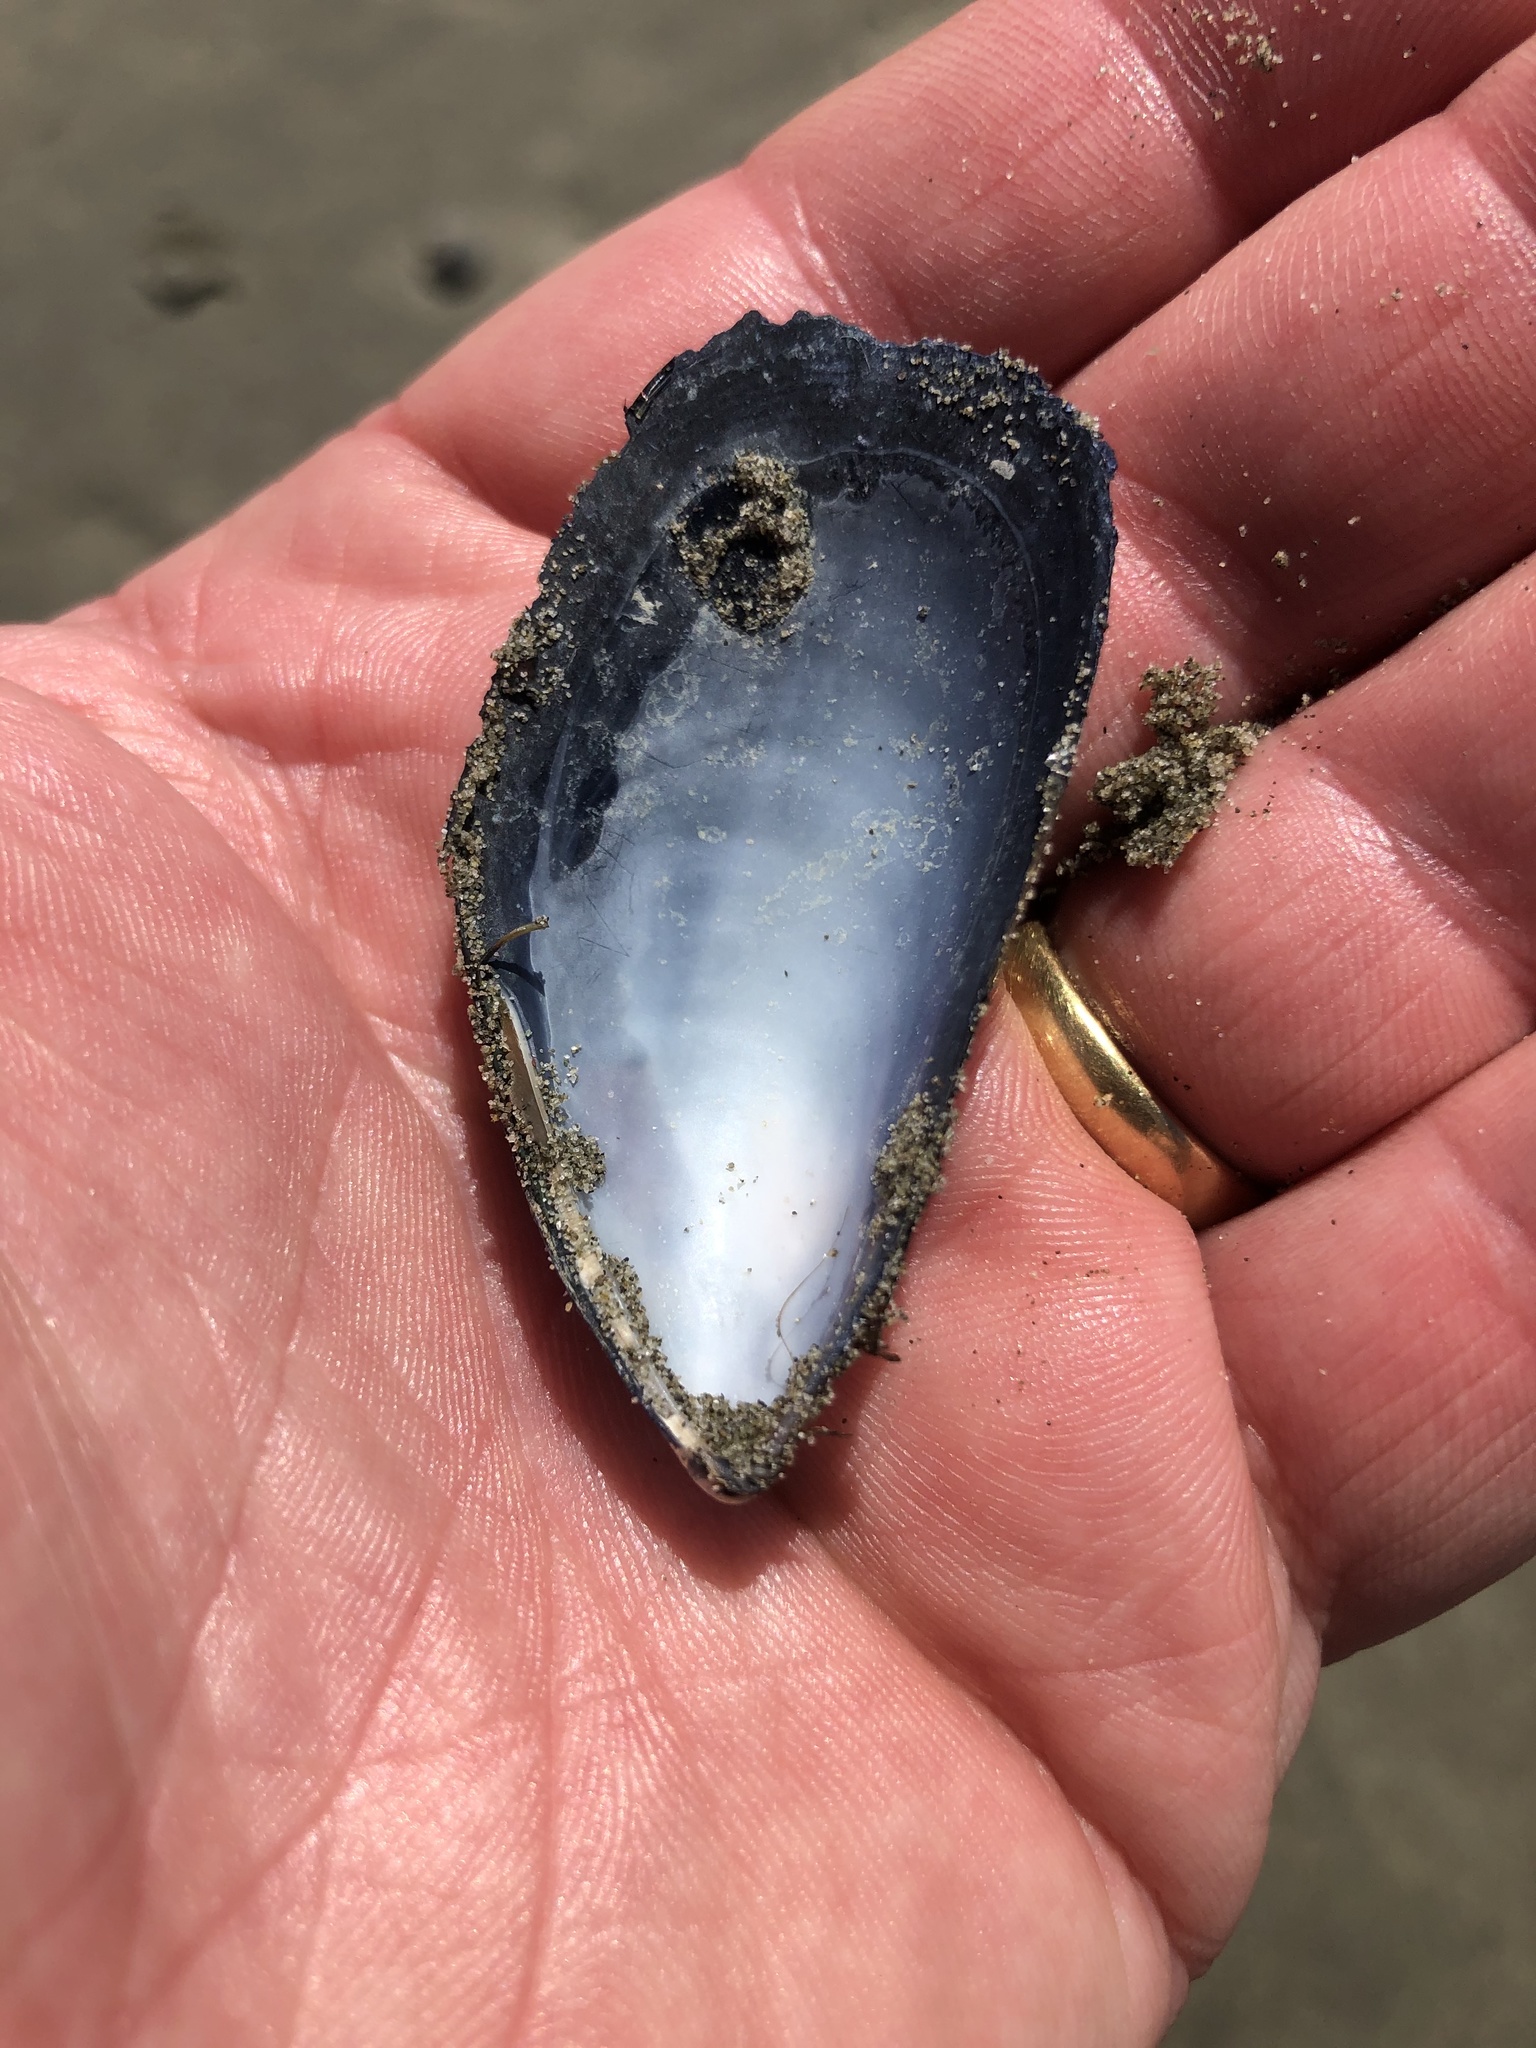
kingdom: Animalia
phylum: Mollusca
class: Bivalvia
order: Mytilida
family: Mytilidae
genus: Mytilus
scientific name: Mytilus planulatus
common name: Australian mussel
